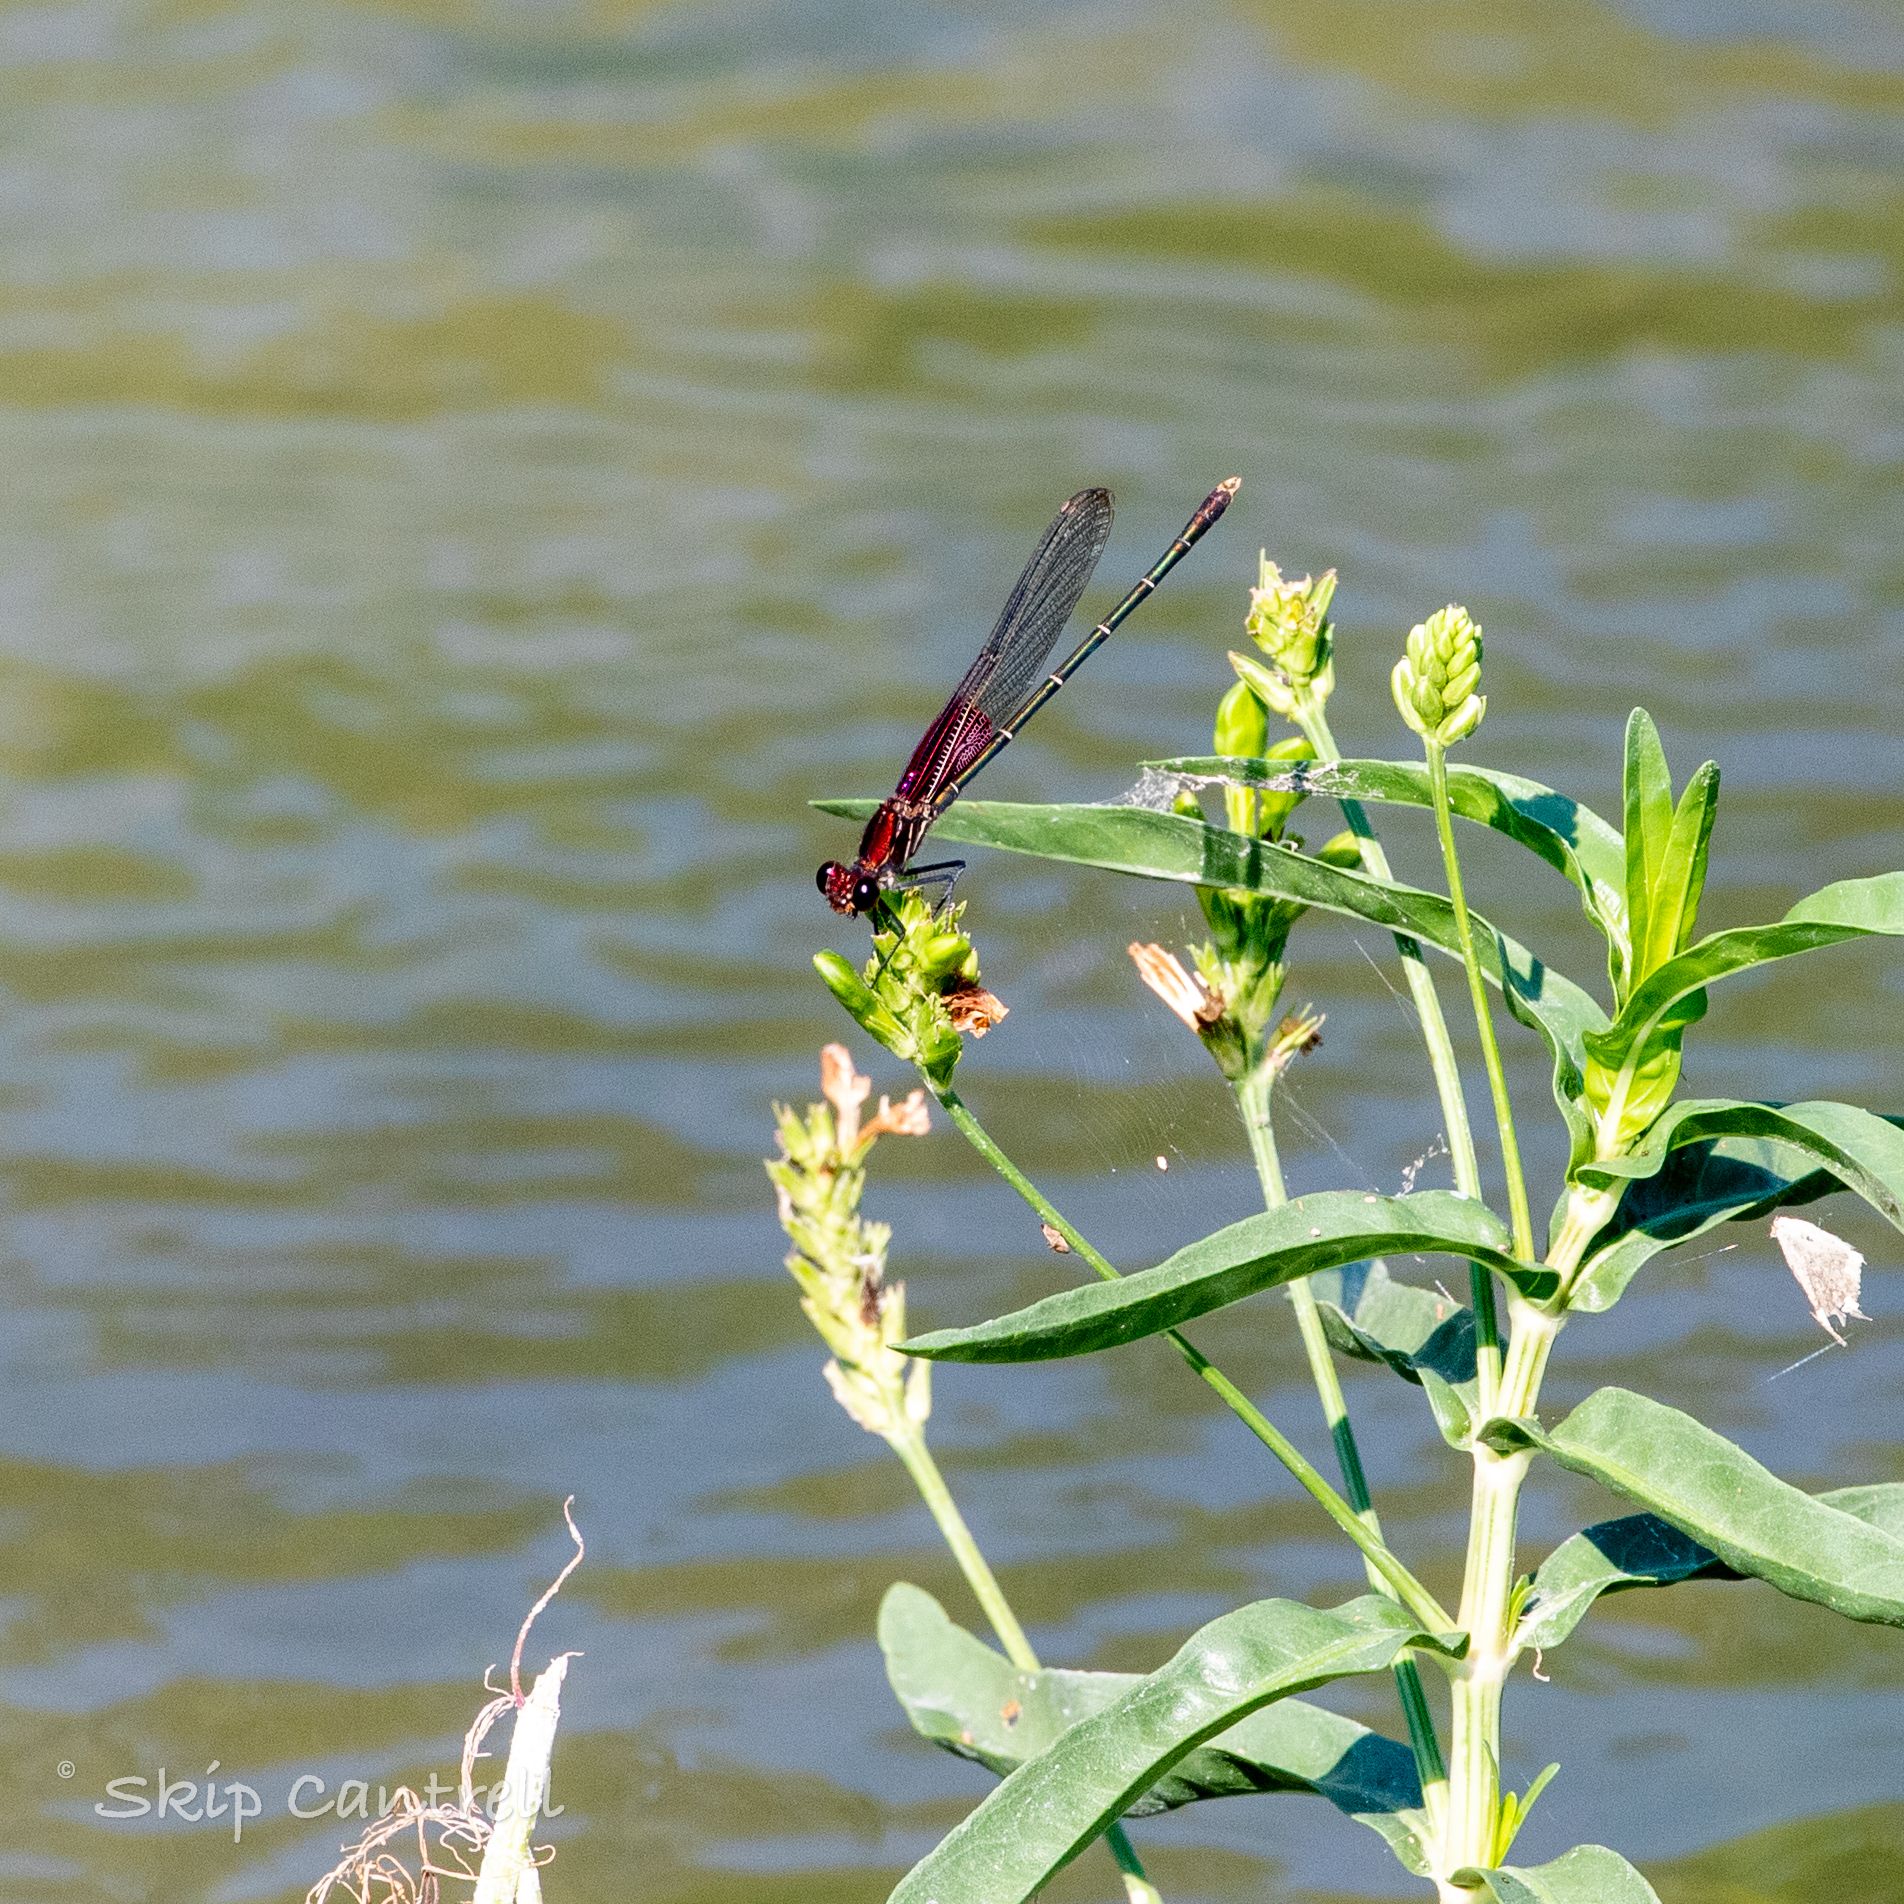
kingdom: Animalia
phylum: Arthropoda
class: Insecta
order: Odonata
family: Calopterygidae
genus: Hetaerina
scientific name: Hetaerina americana
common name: American rubyspot
